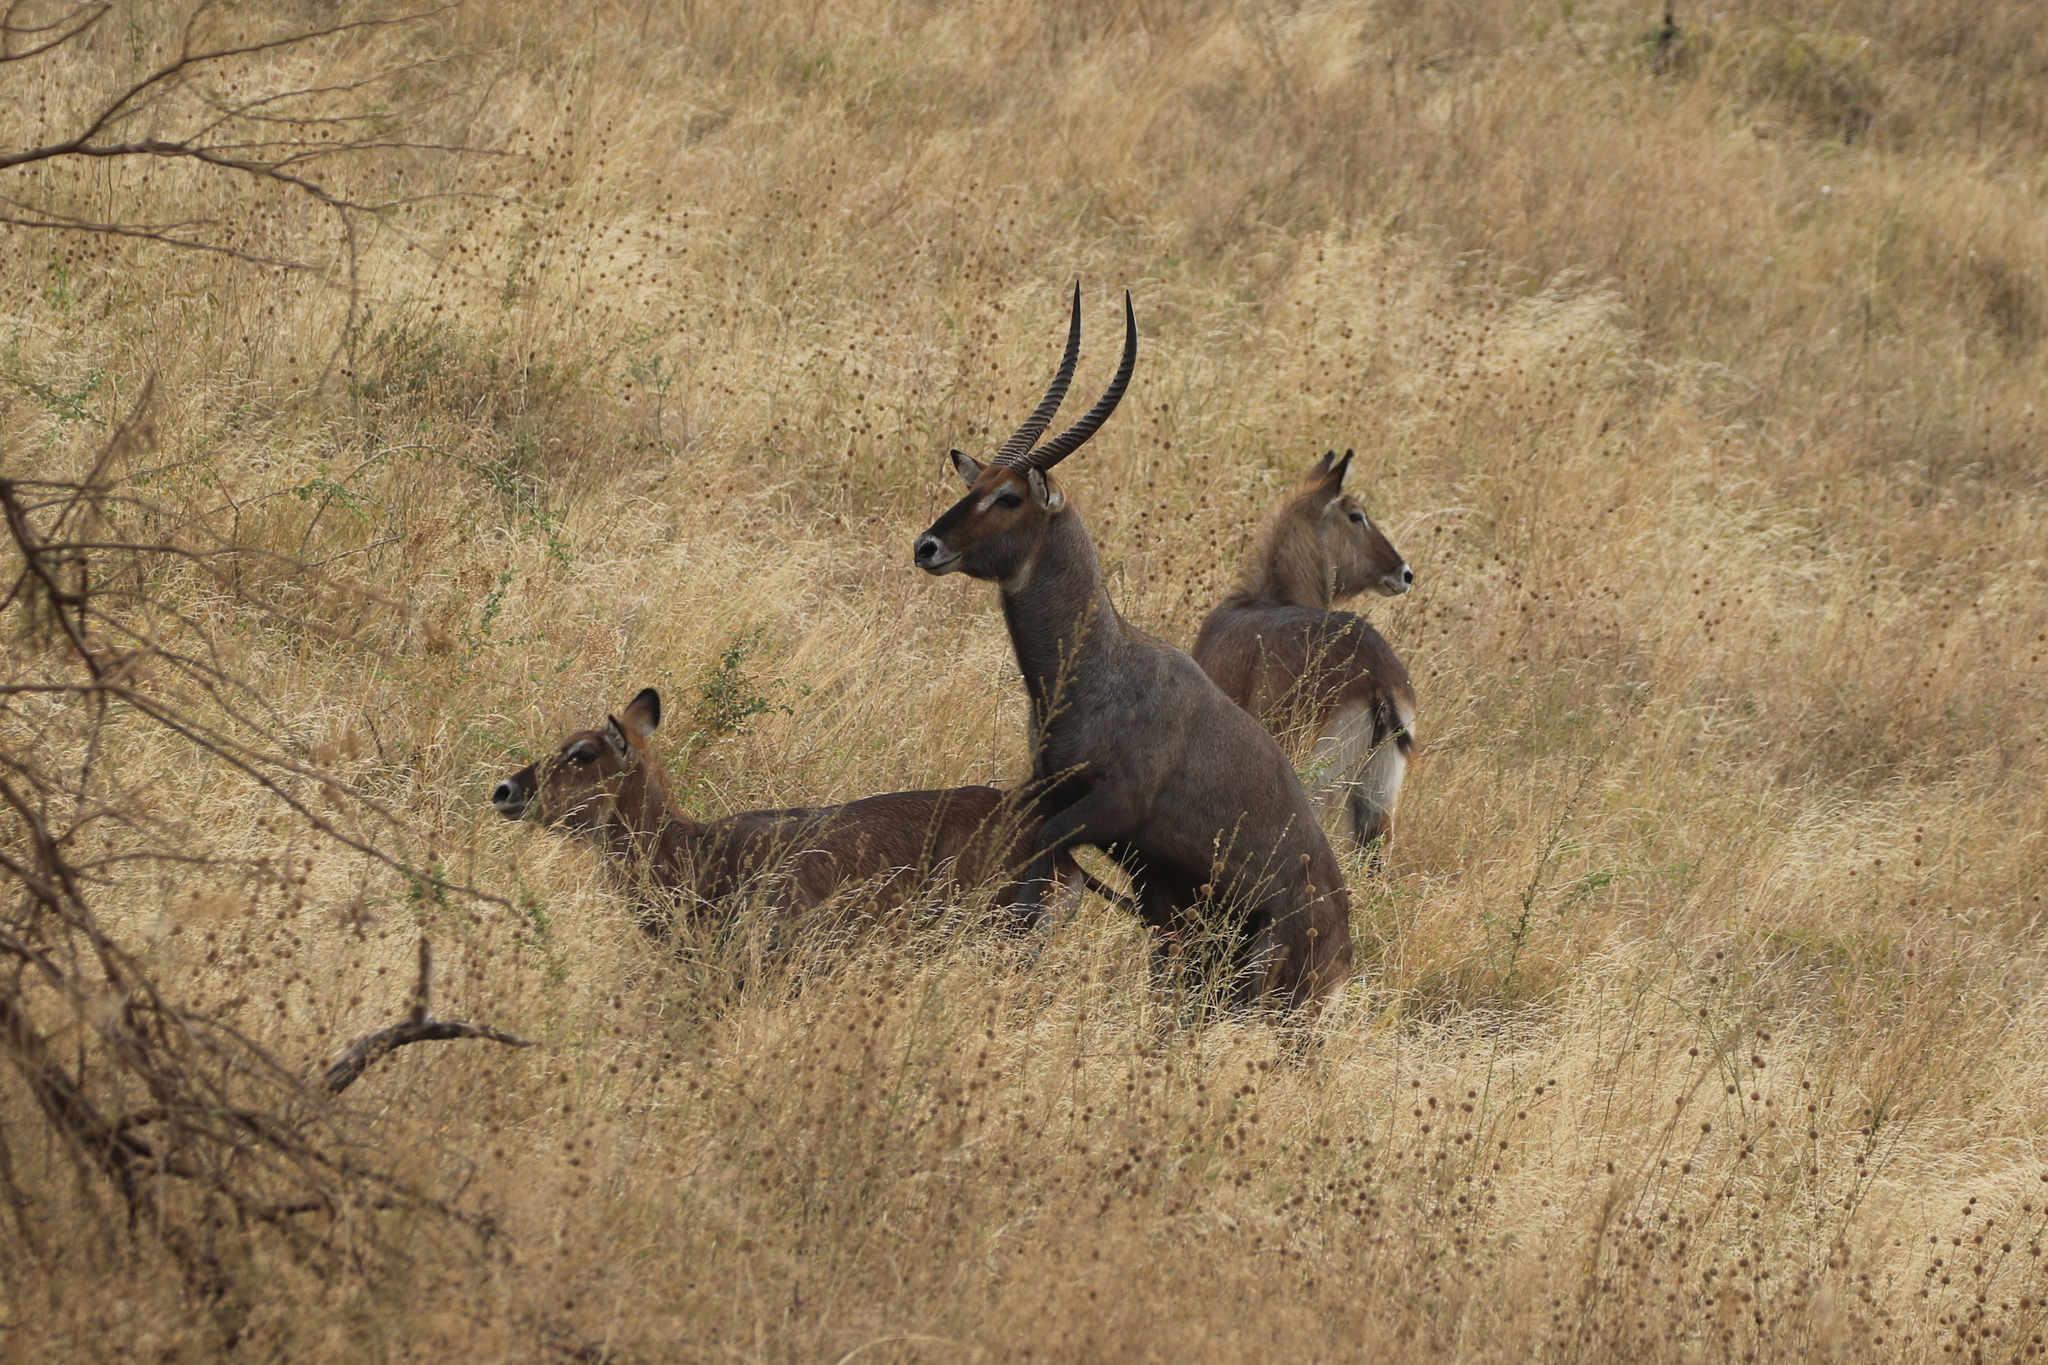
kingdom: Animalia
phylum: Chordata
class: Mammalia
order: Artiodactyla
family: Bovidae
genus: Kobus
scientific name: Kobus ellipsiprymnus
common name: Waterbuck
